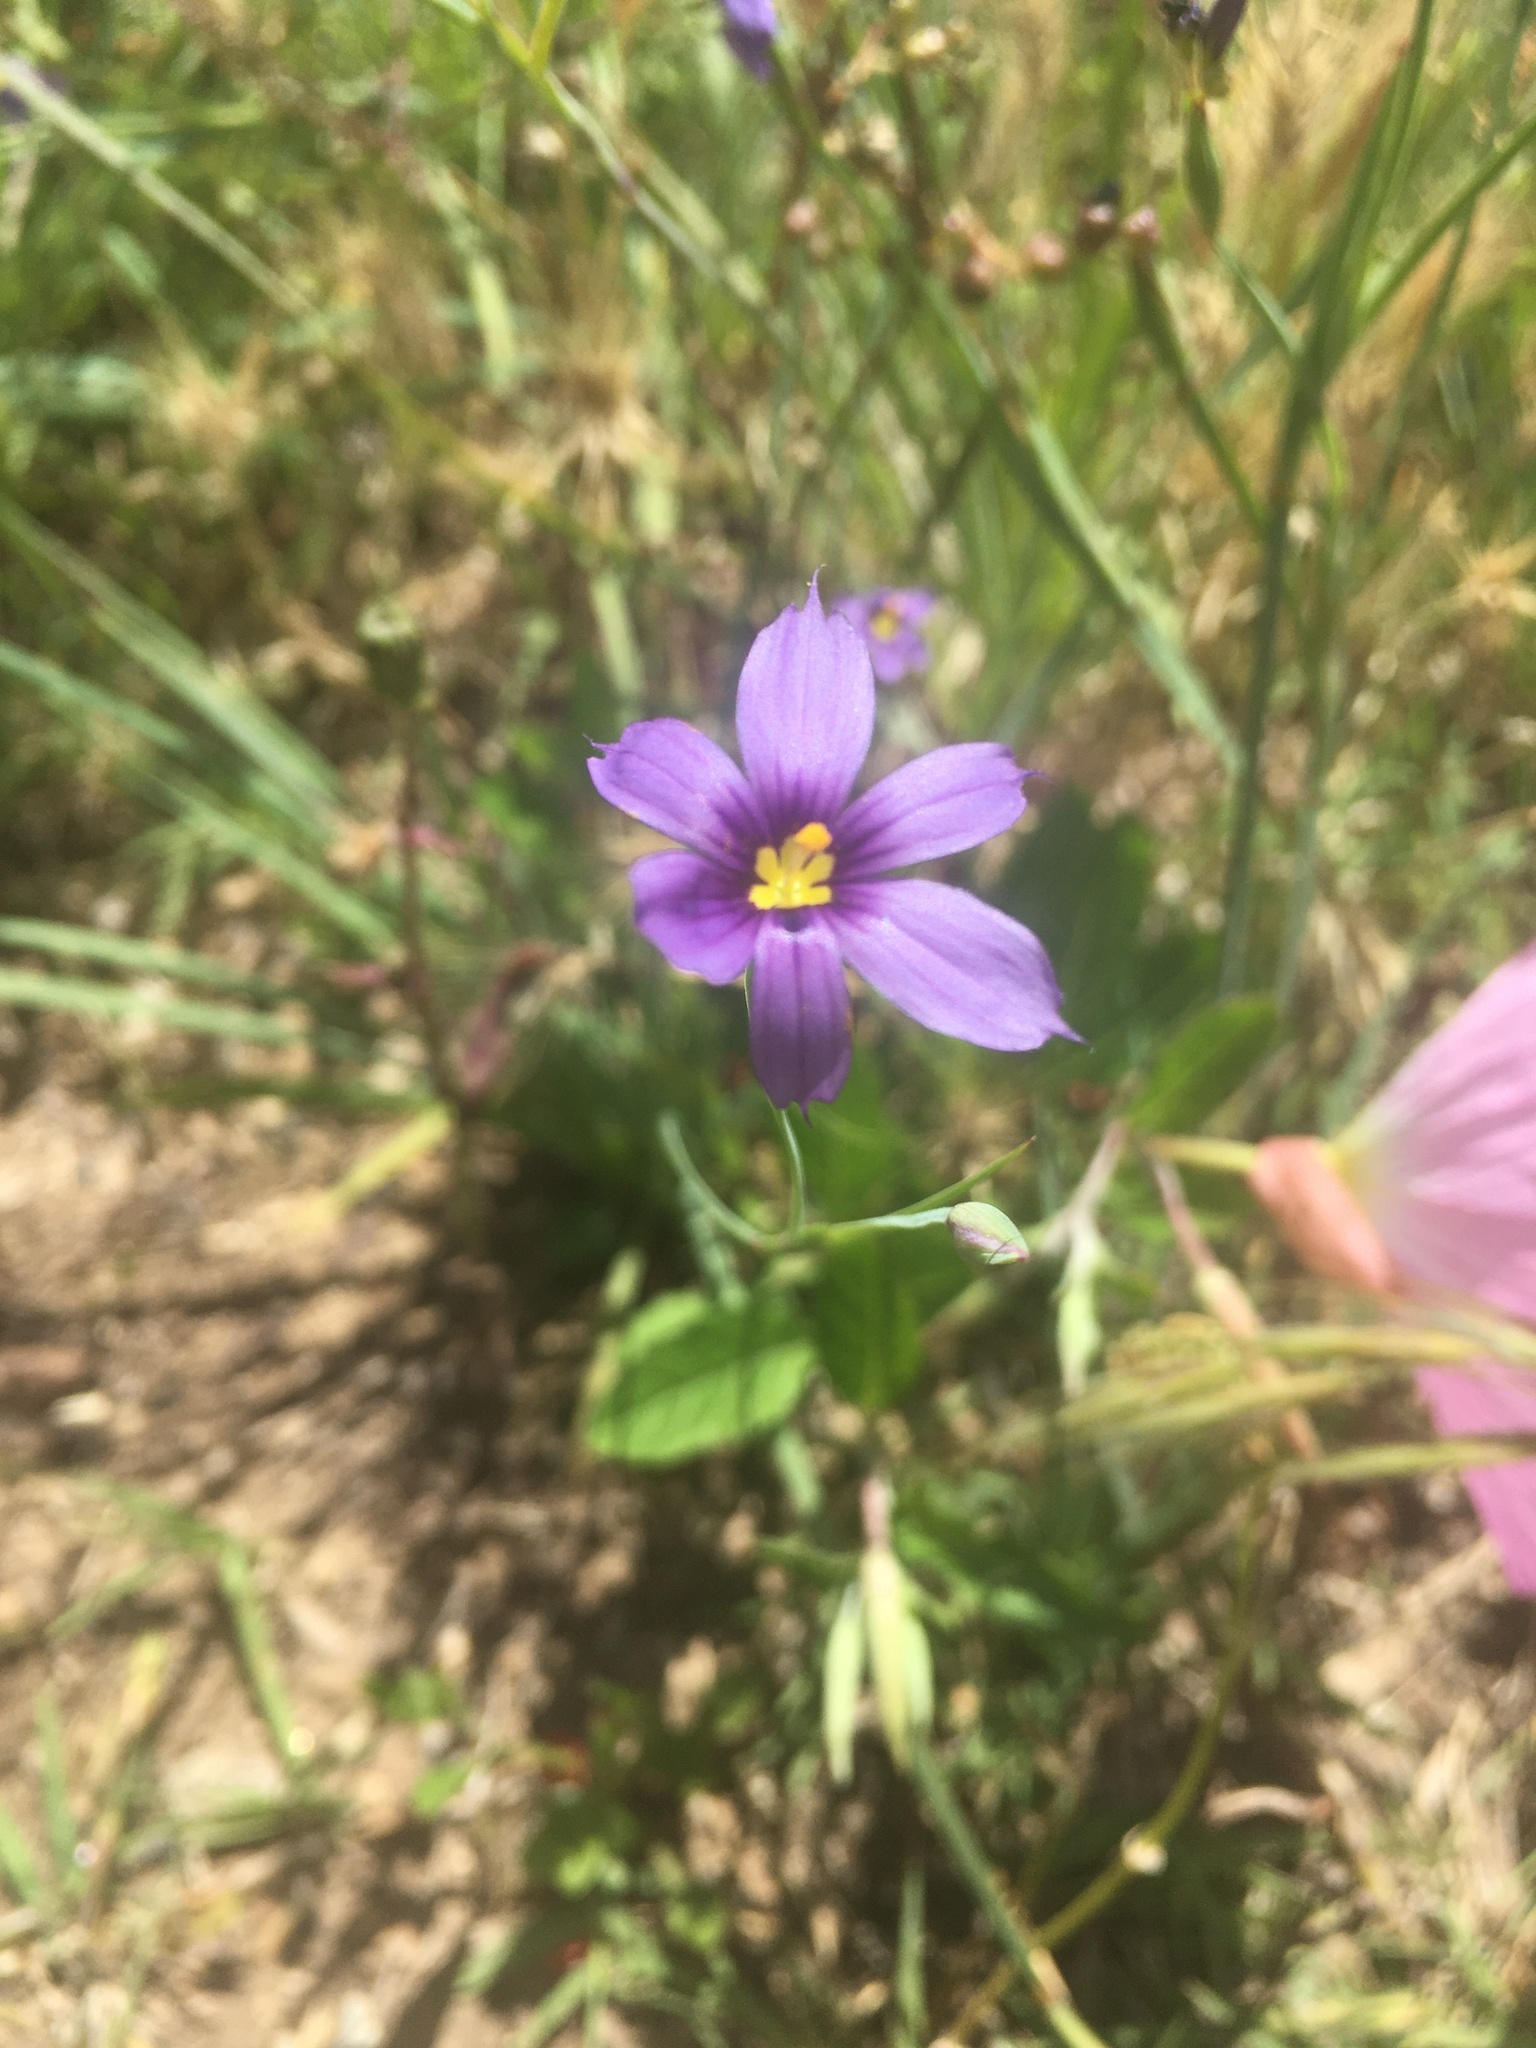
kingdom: Plantae
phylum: Tracheophyta
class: Liliopsida
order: Asparagales
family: Iridaceae
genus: Sisyrinchium
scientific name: Sisyrinchium bellum
